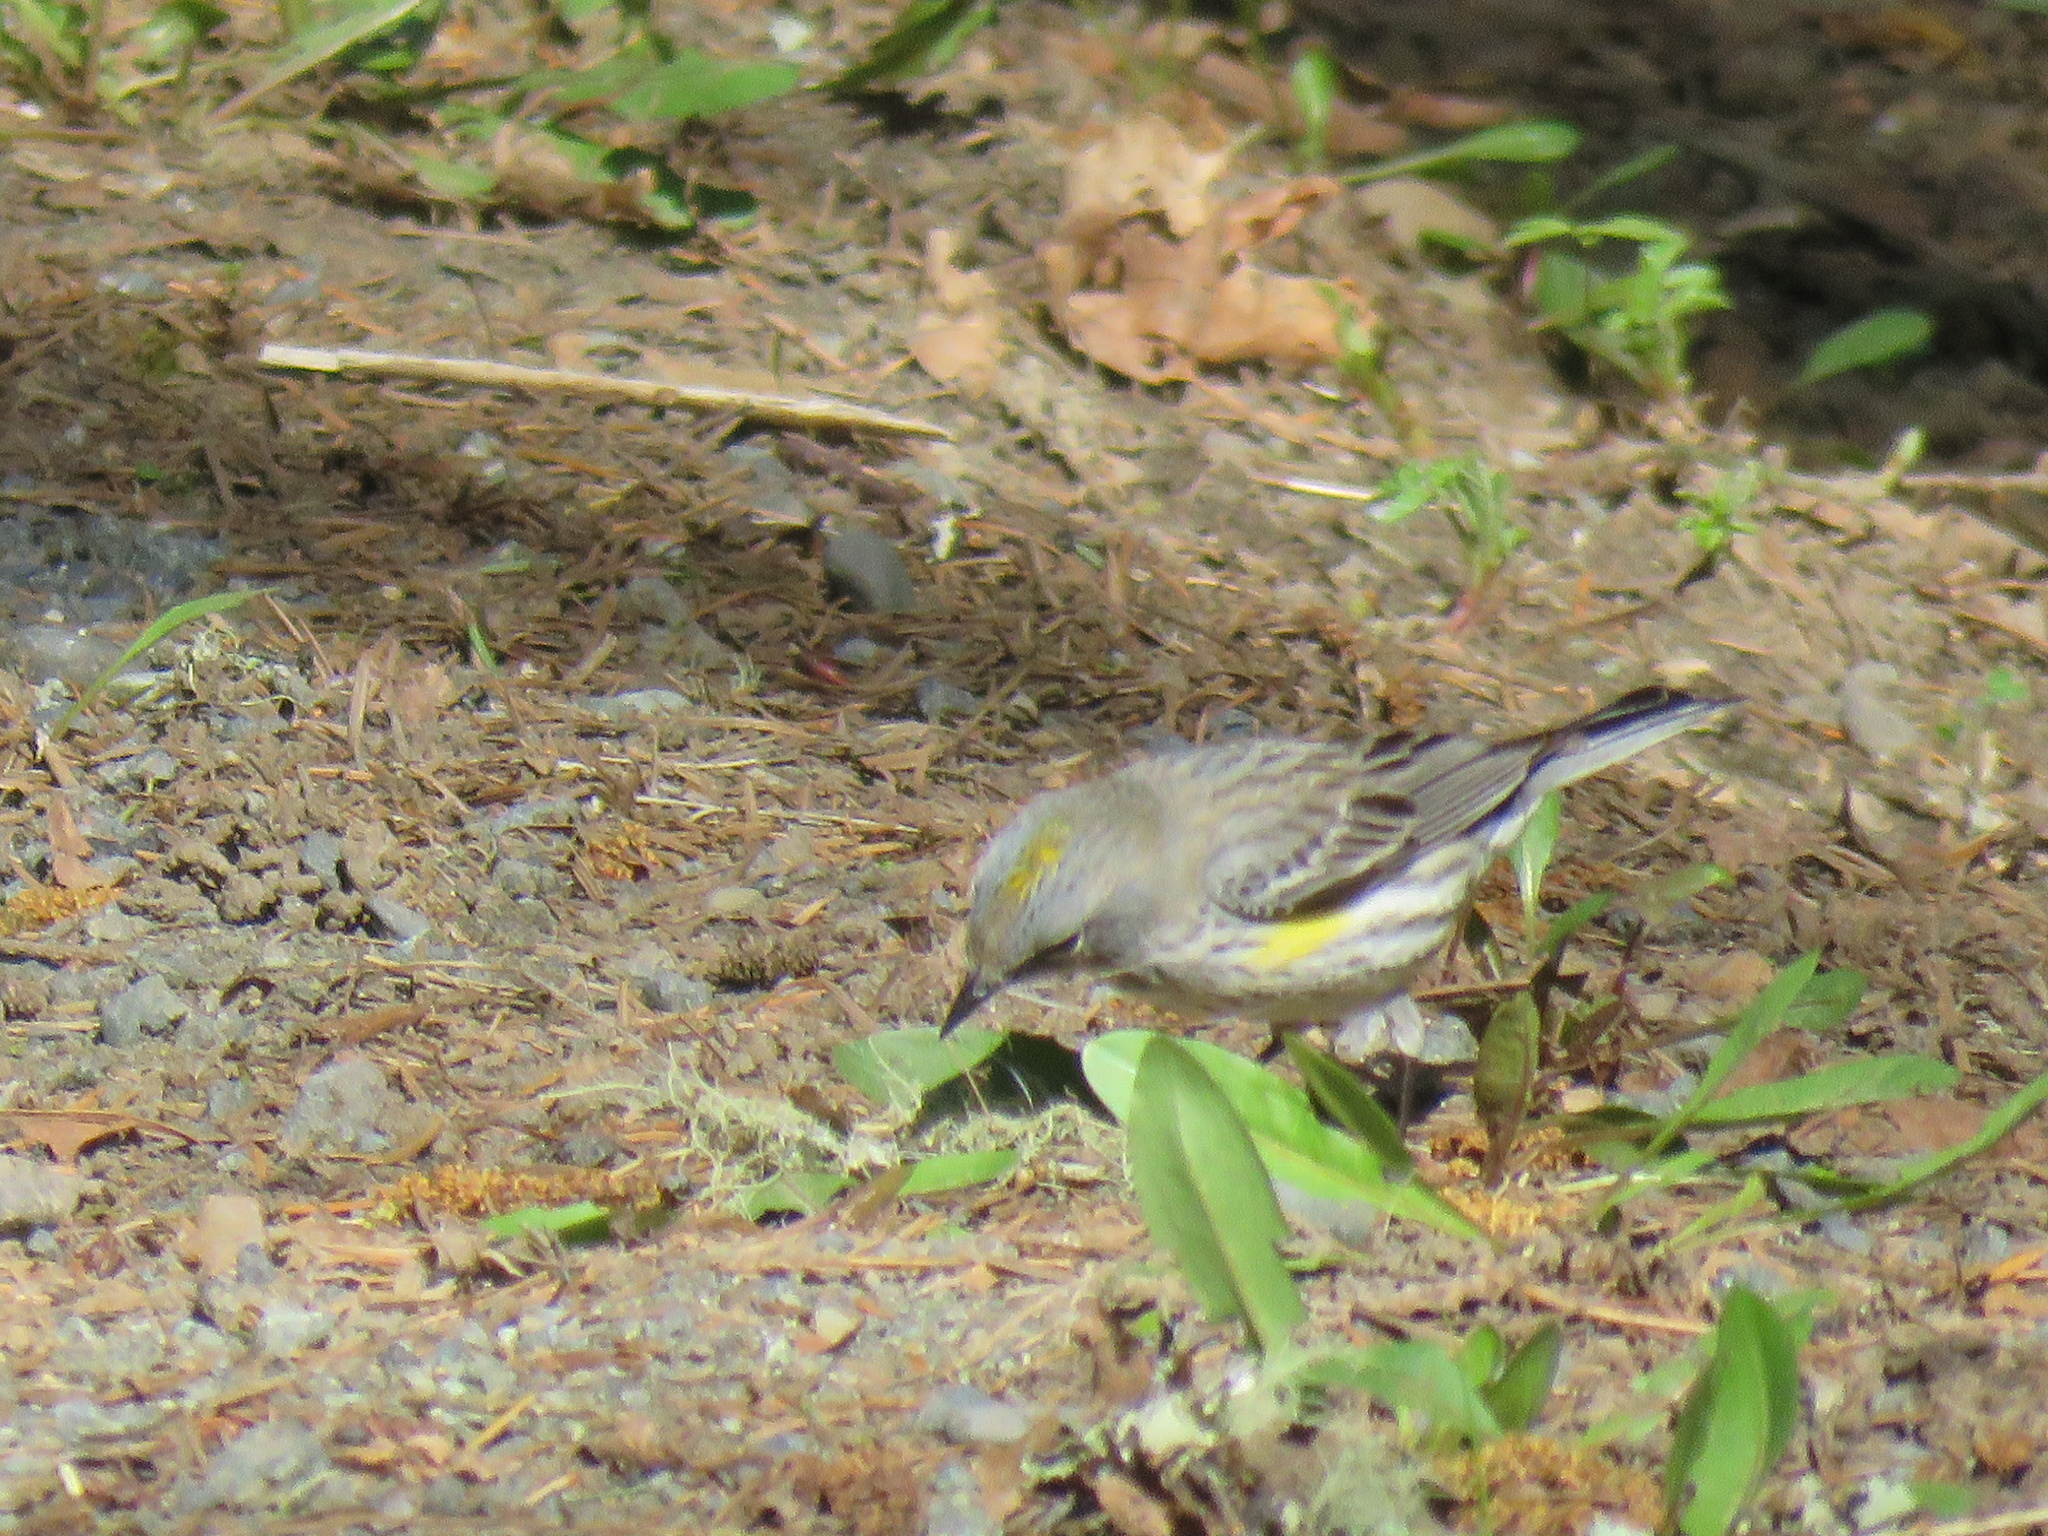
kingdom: Animalia
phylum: Chordata
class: Aves
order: Passeriformes
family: Parulidae
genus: Setophaga
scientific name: Setophaga coronata
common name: Myrtle warbler
